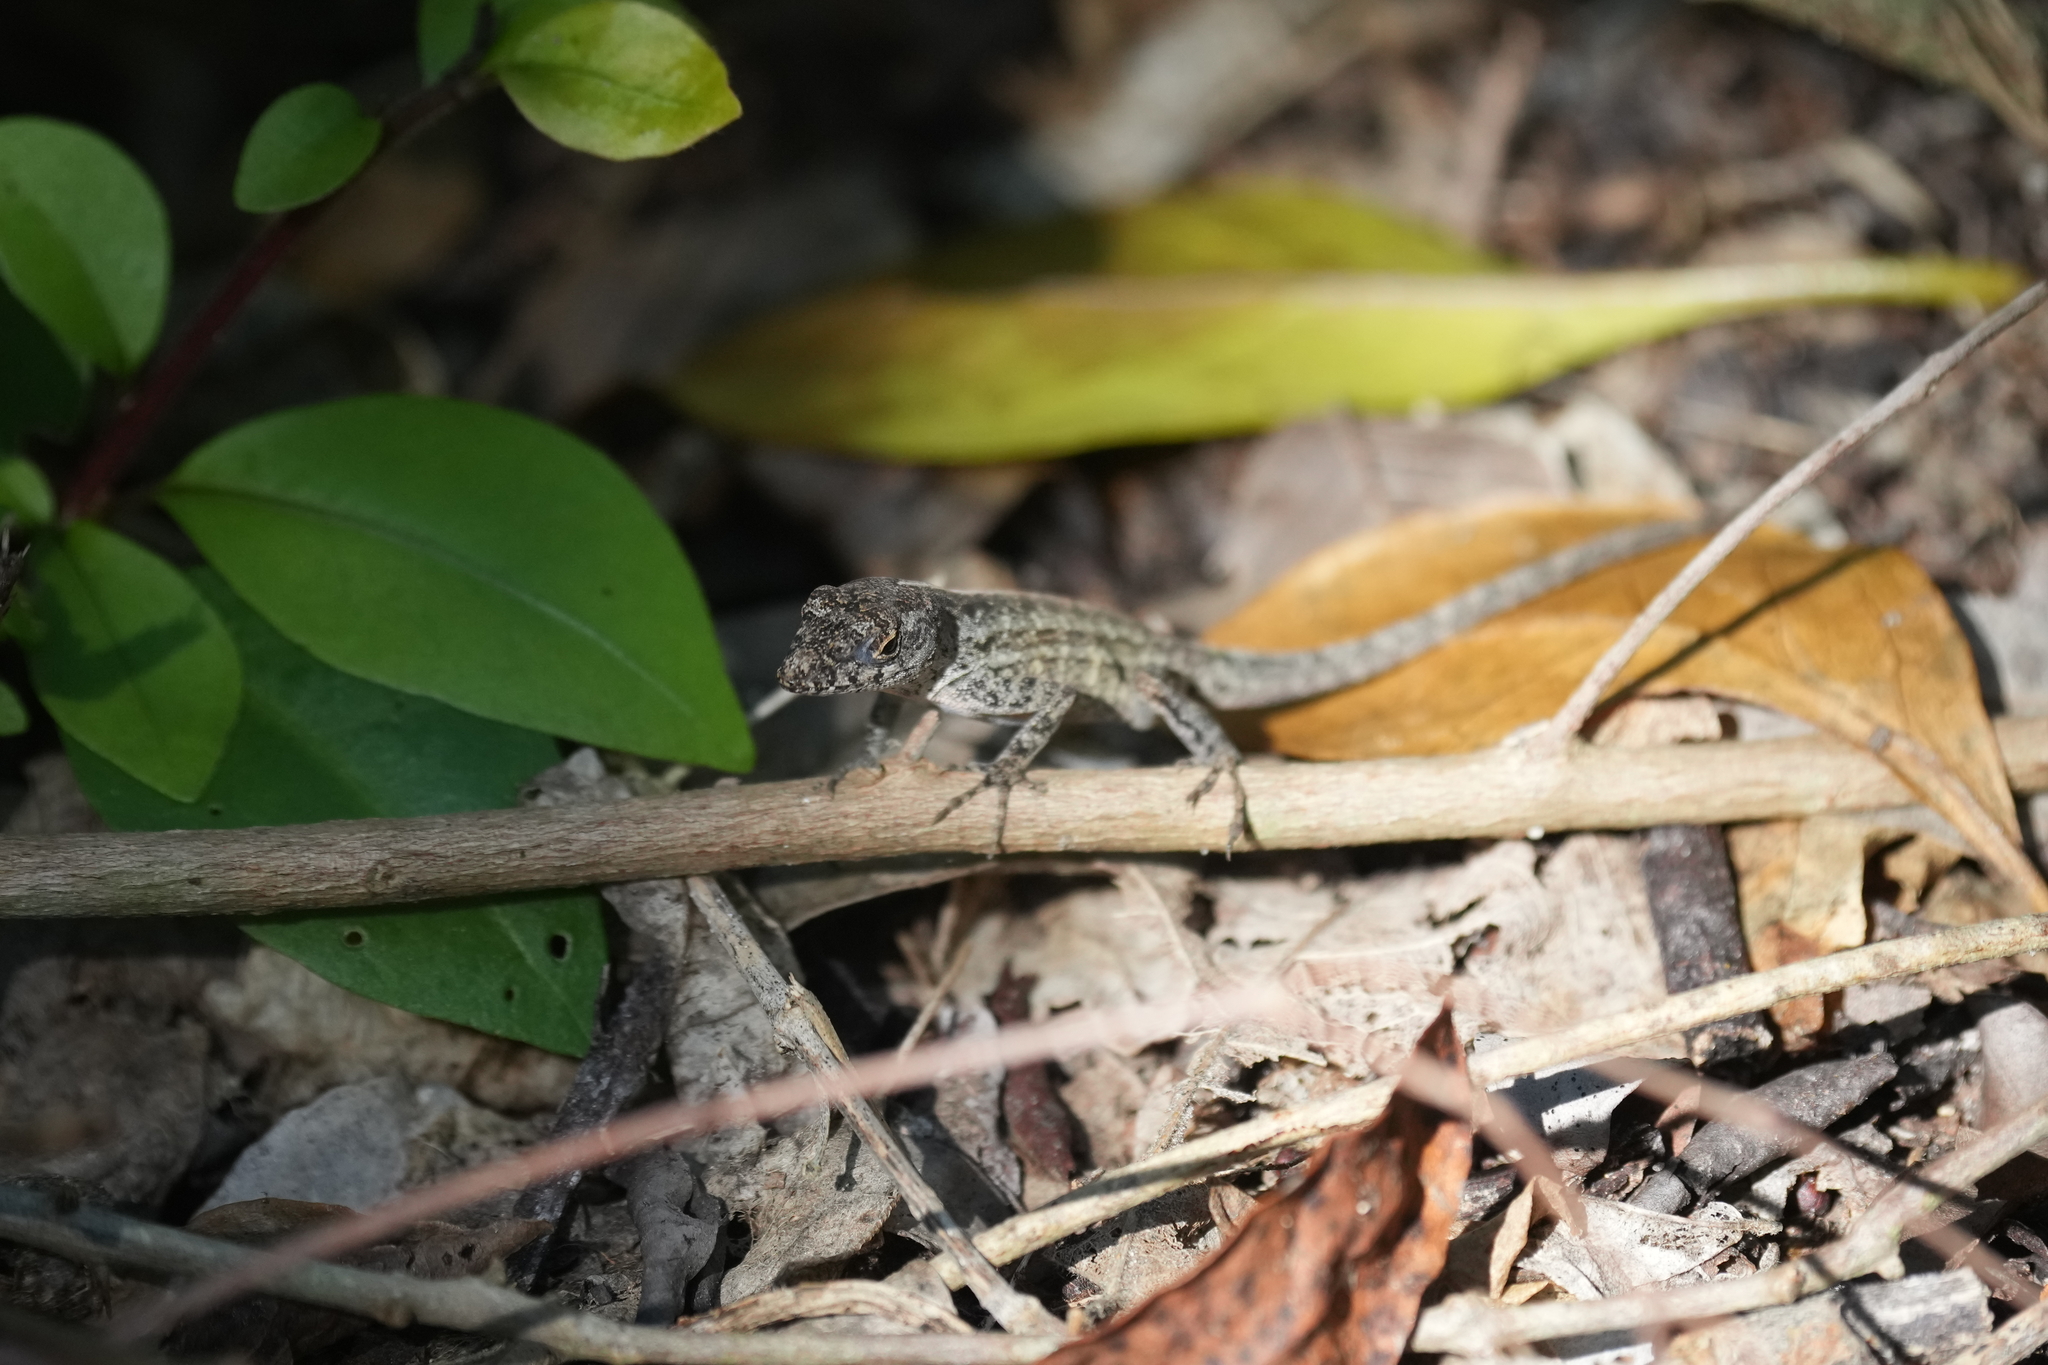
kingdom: Animalia
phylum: Chordata
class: Squamata
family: Dactyloidae
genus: Anolis
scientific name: Anolis sagrei
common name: Brown anole
